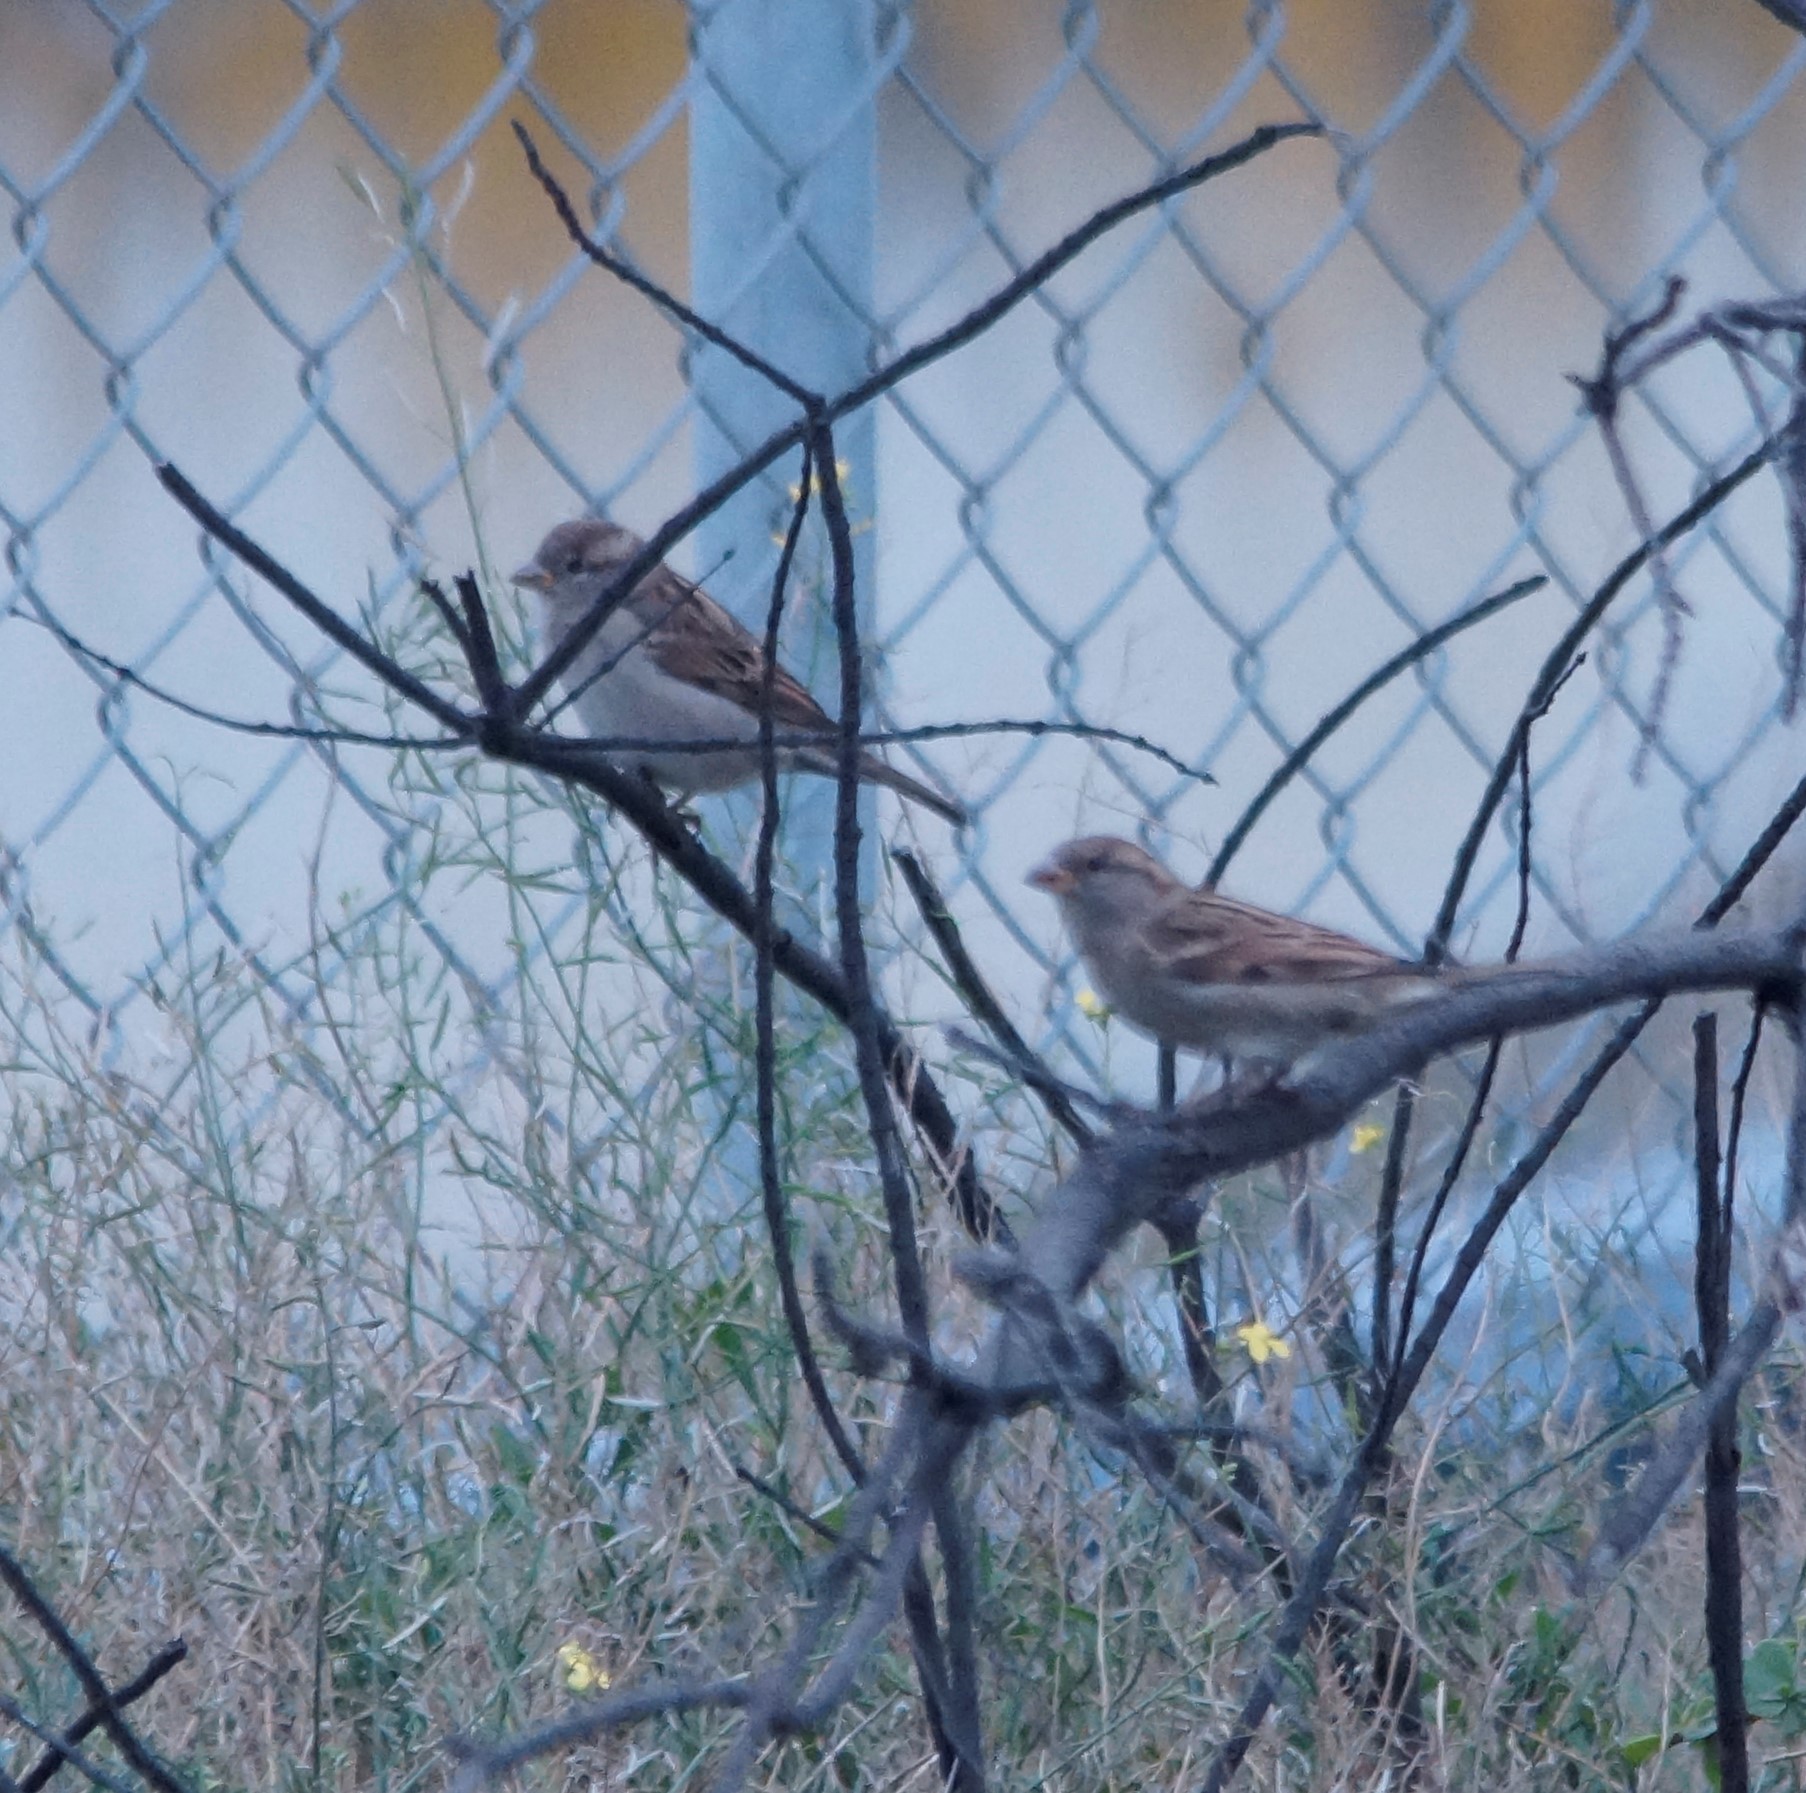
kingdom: Animalia
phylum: Chordata
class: Aves
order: Passeriformes
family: Passeridae
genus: Passer
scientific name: Passer domesticus
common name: House sparrow
